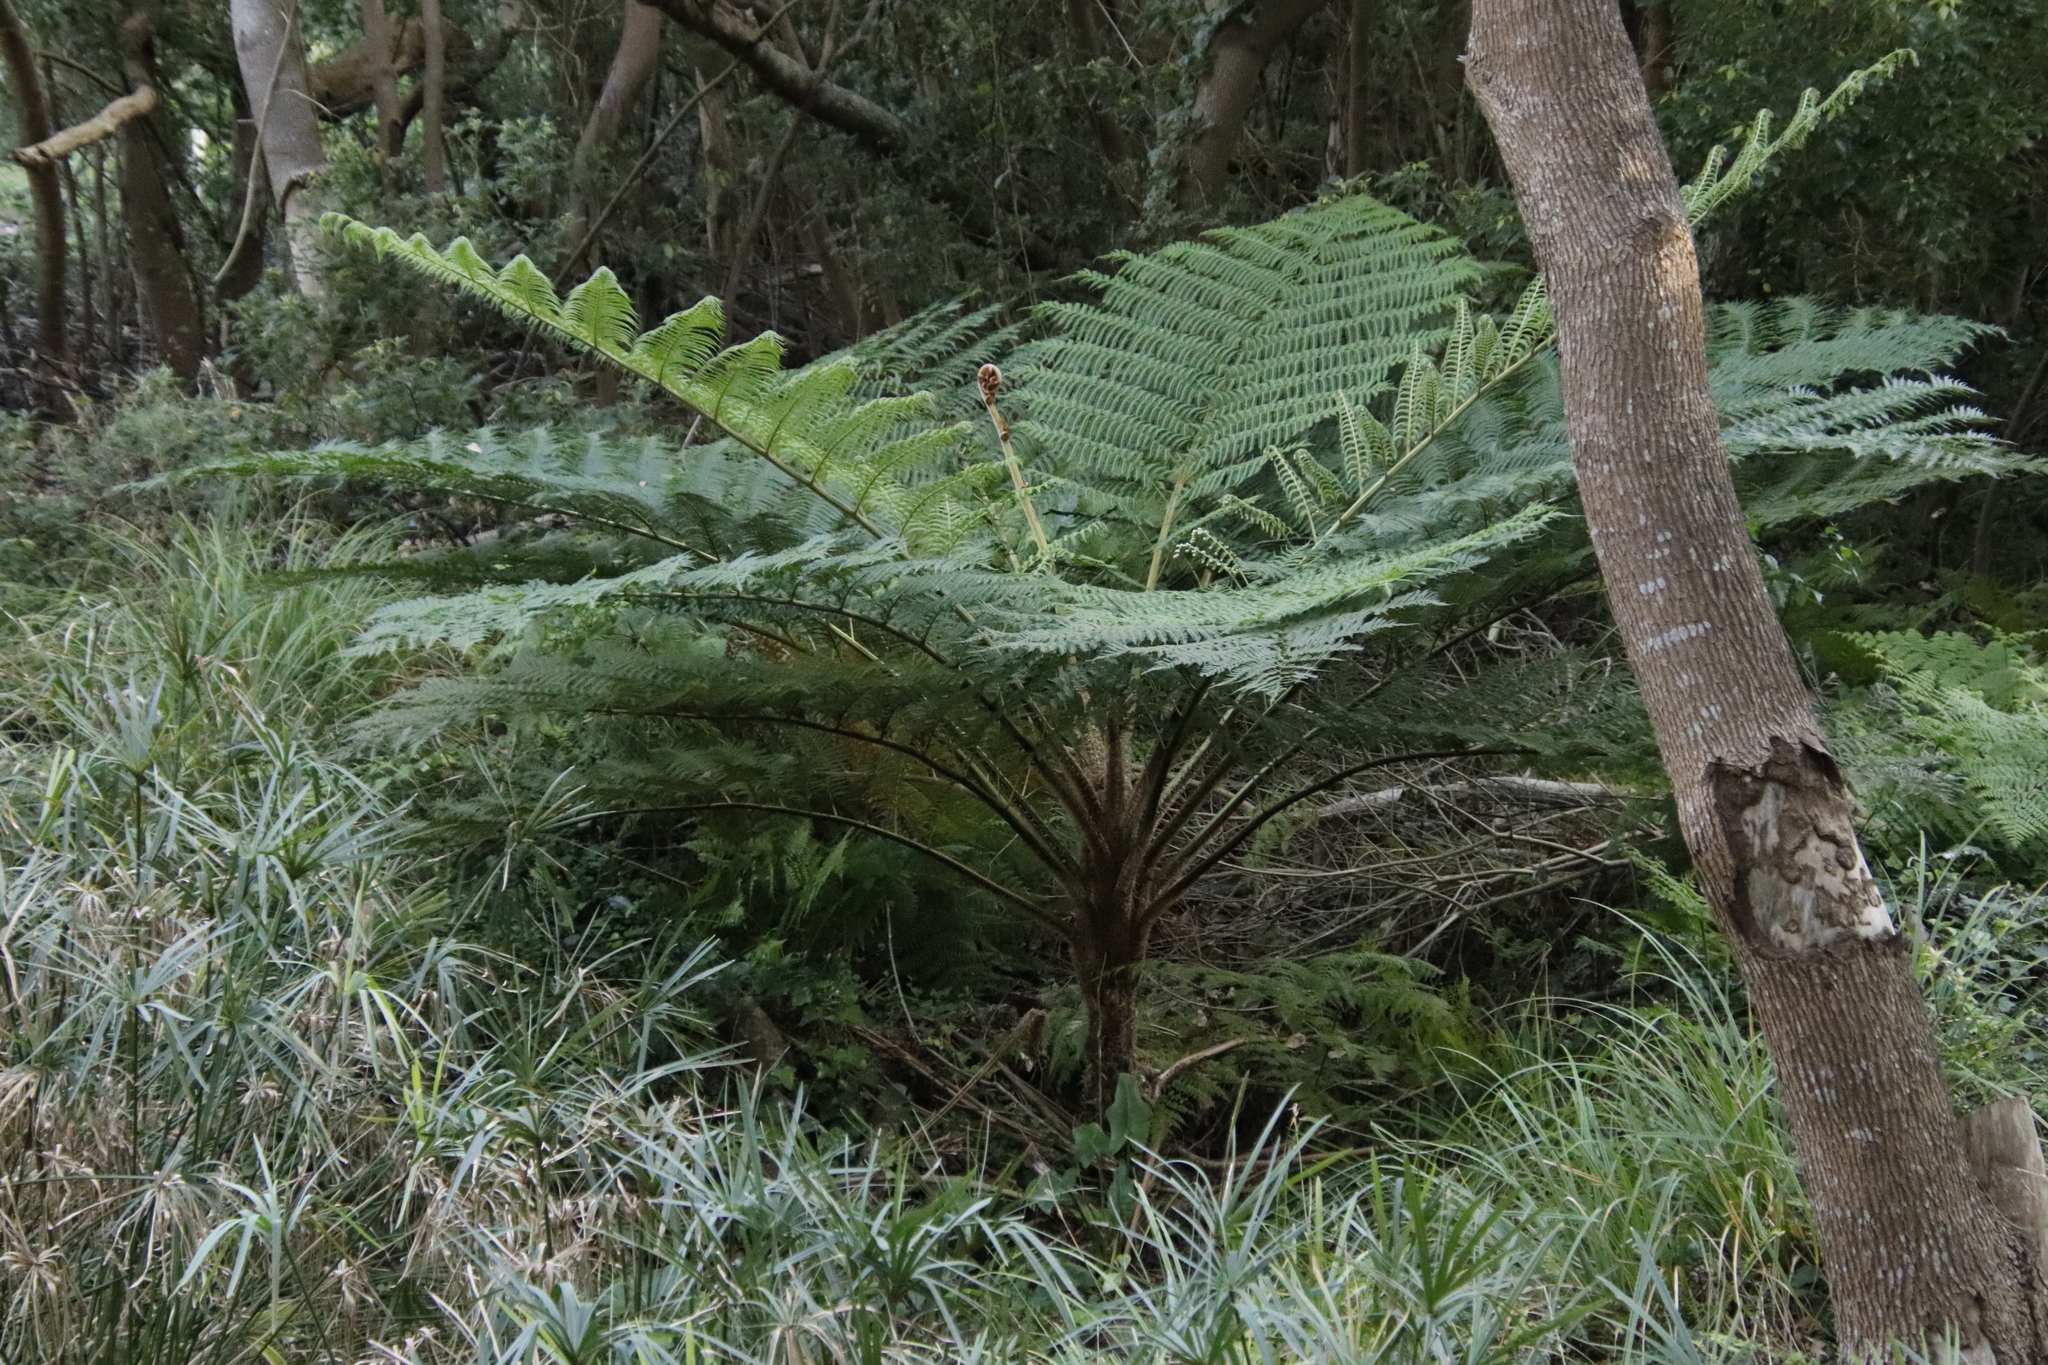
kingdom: Plantae
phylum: Tracheophyta
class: Polypodiopsida
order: Cyatheales
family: Cyatheaceae
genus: Sphaeropteris
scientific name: Sphaeropteris cooperi
